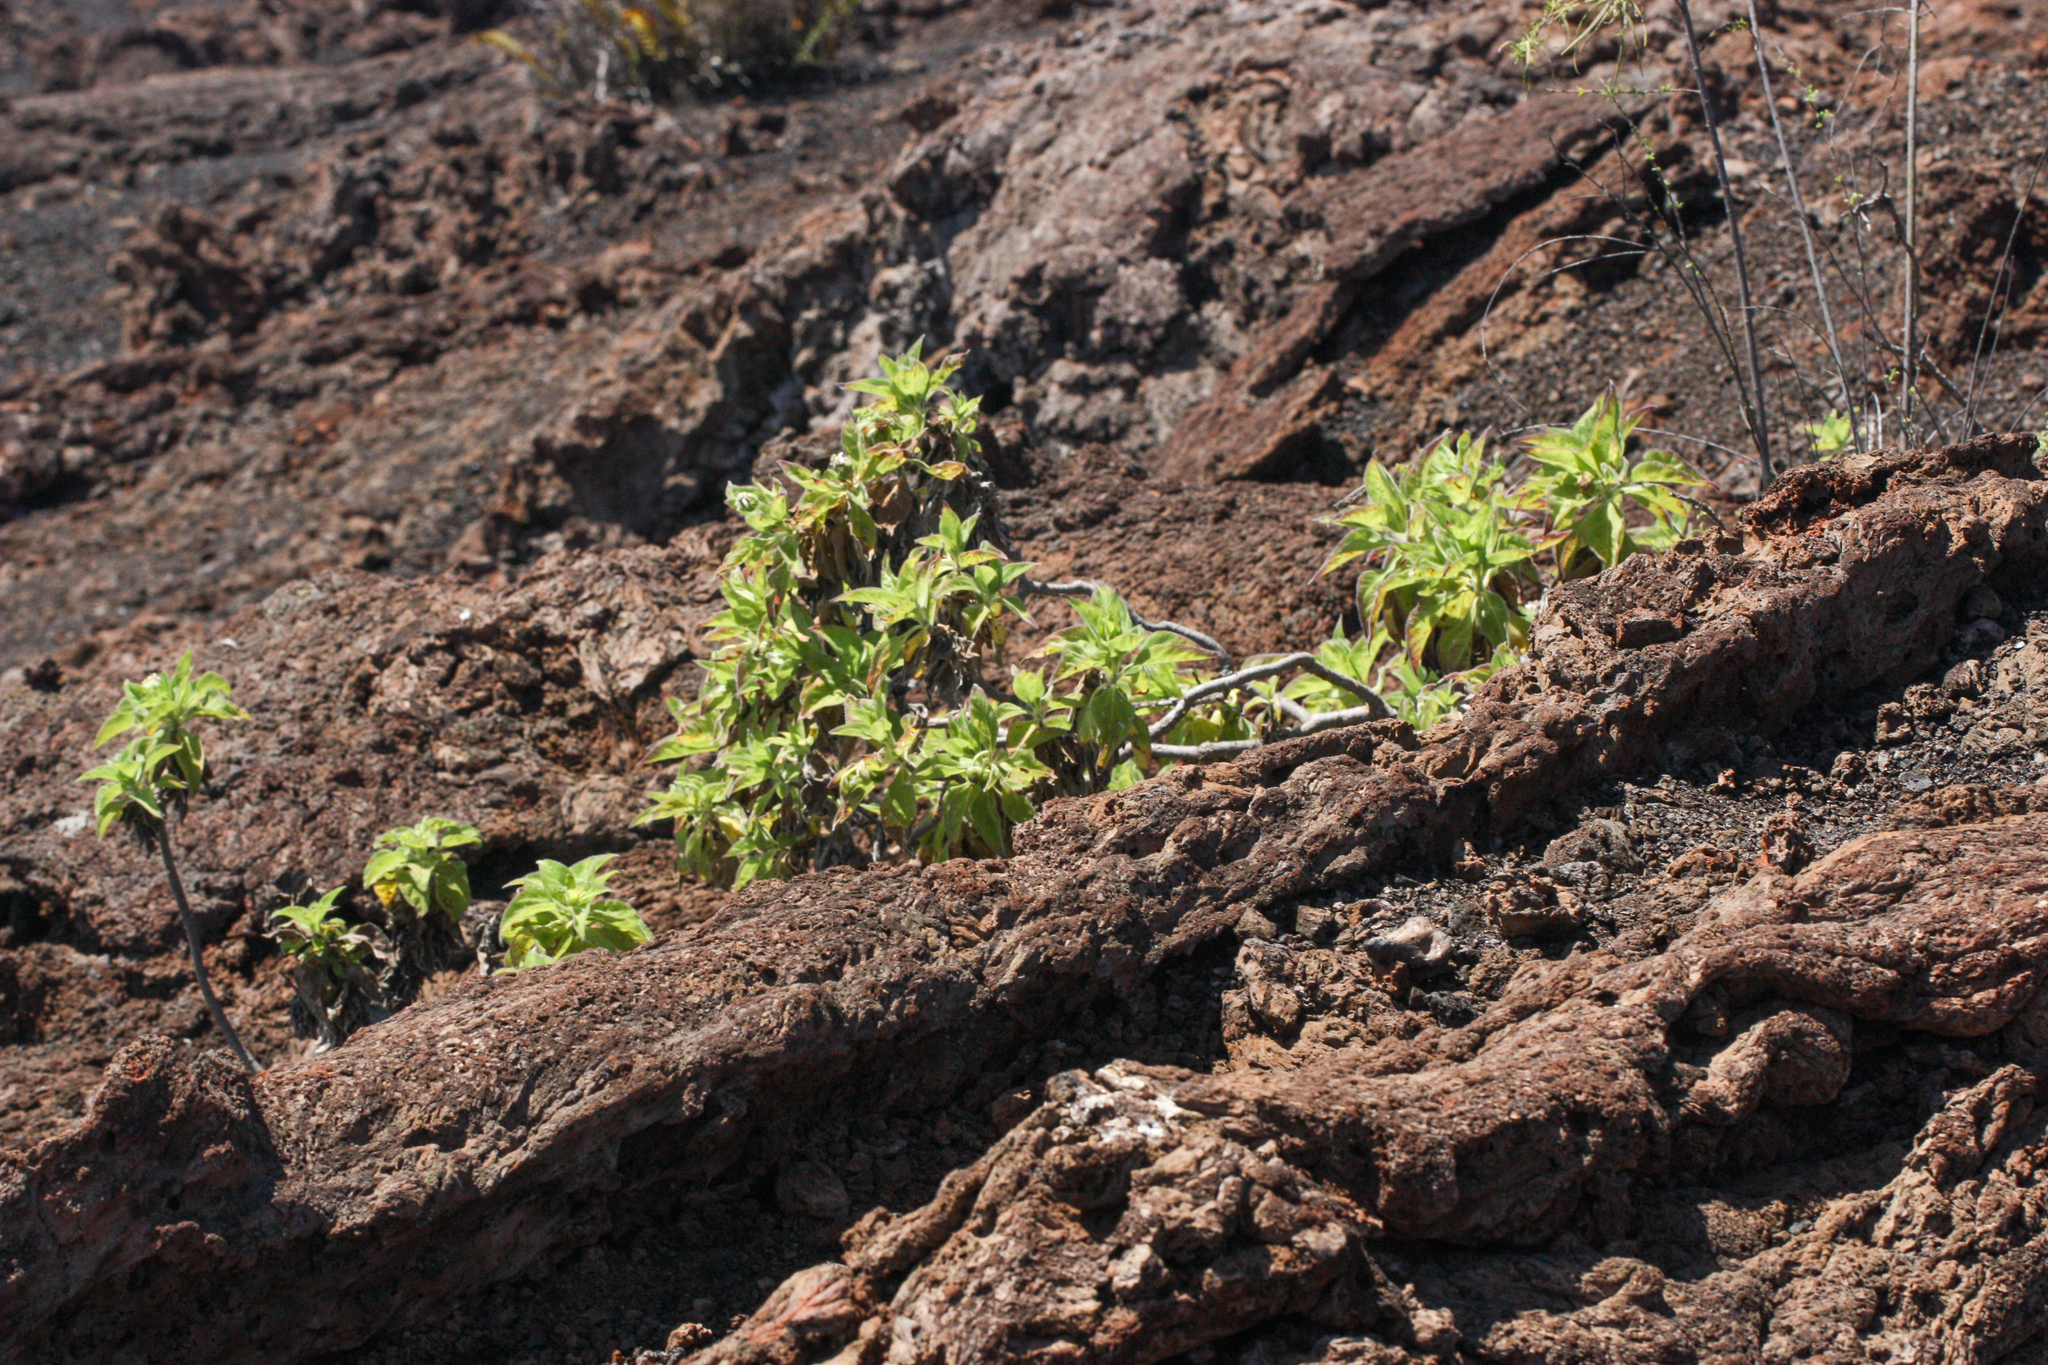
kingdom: Plantae
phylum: Tracheophyta
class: Magnoliopsida
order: Asterales
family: Asteraceae
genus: Scalesia
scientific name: Scalesia affinis
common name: Radiate-headed scalesia
